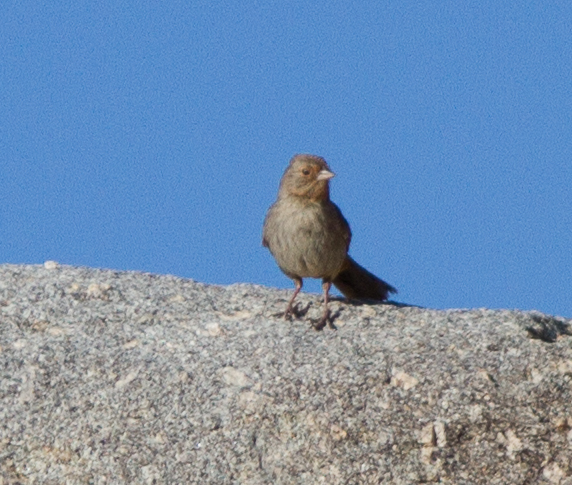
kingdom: Animalia
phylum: Chordata
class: Aves
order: Passeriformes
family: Passerellidae
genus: Melozone
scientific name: Melozone crissalis
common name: California towhee
